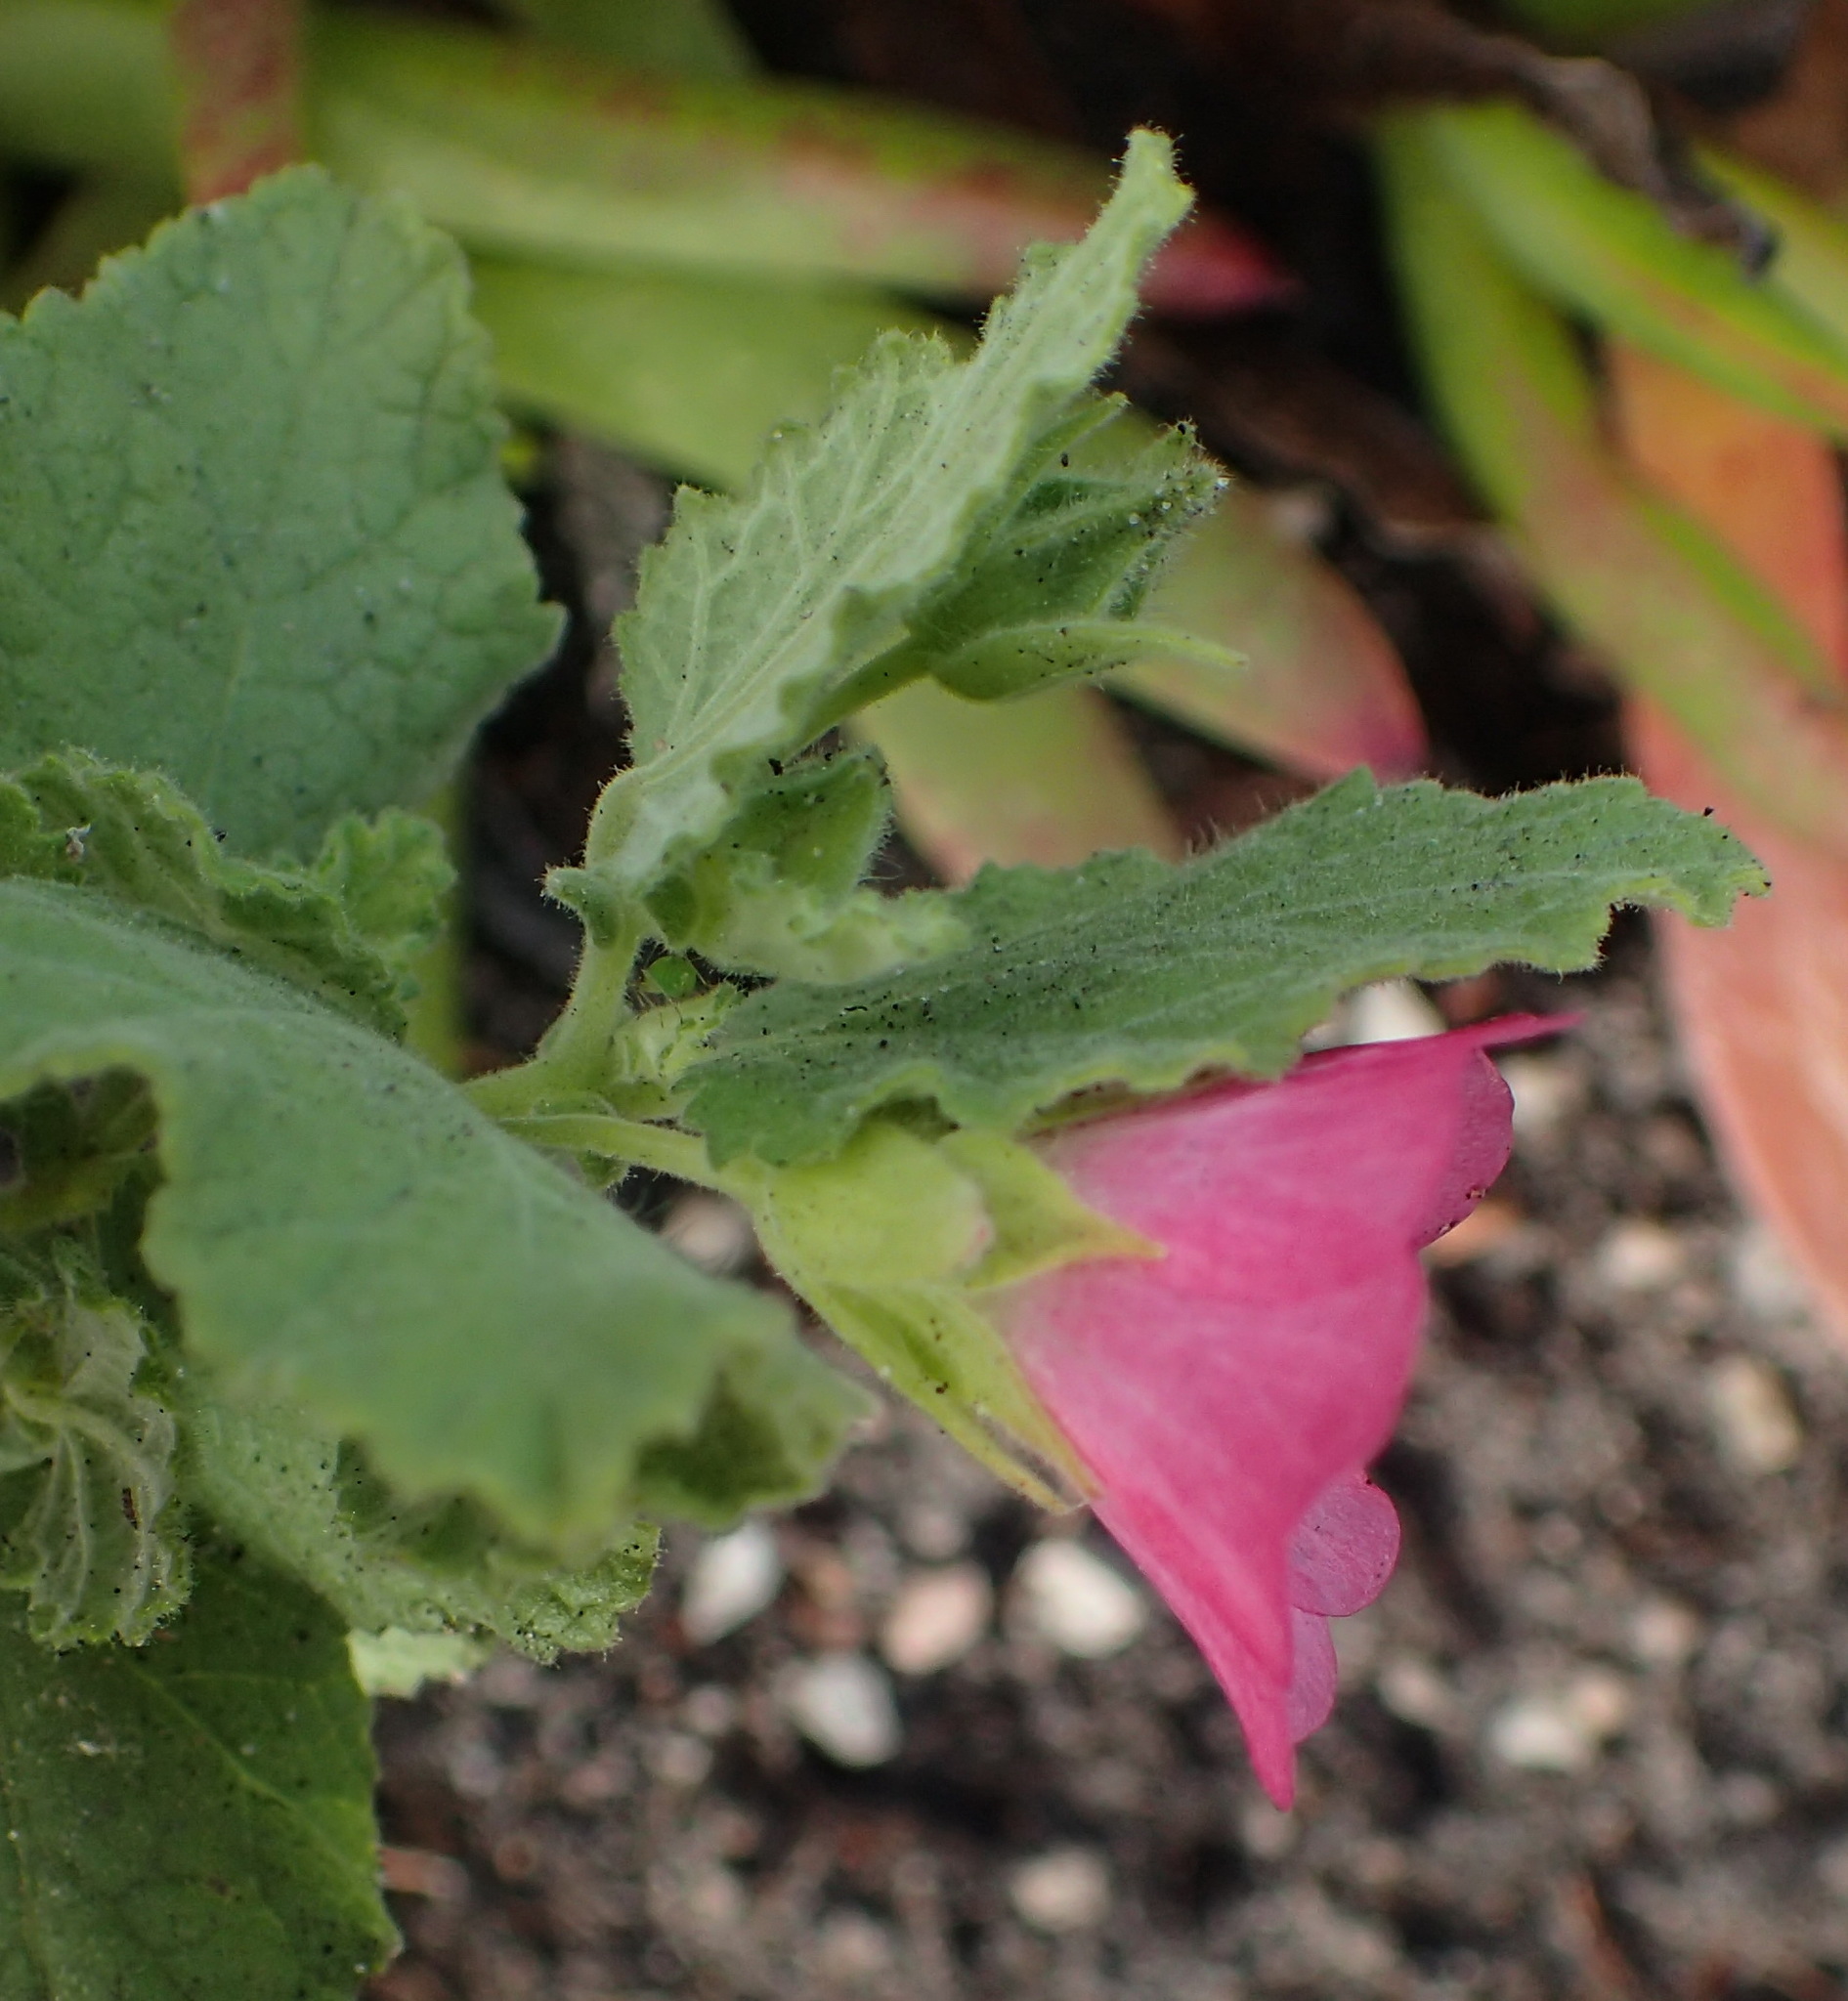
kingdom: Plantae
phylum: Tracheophyta
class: Magnoliopsida
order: Malvales
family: Malvaceae
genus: Anisodontea
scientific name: Anisodontea scabrosa
